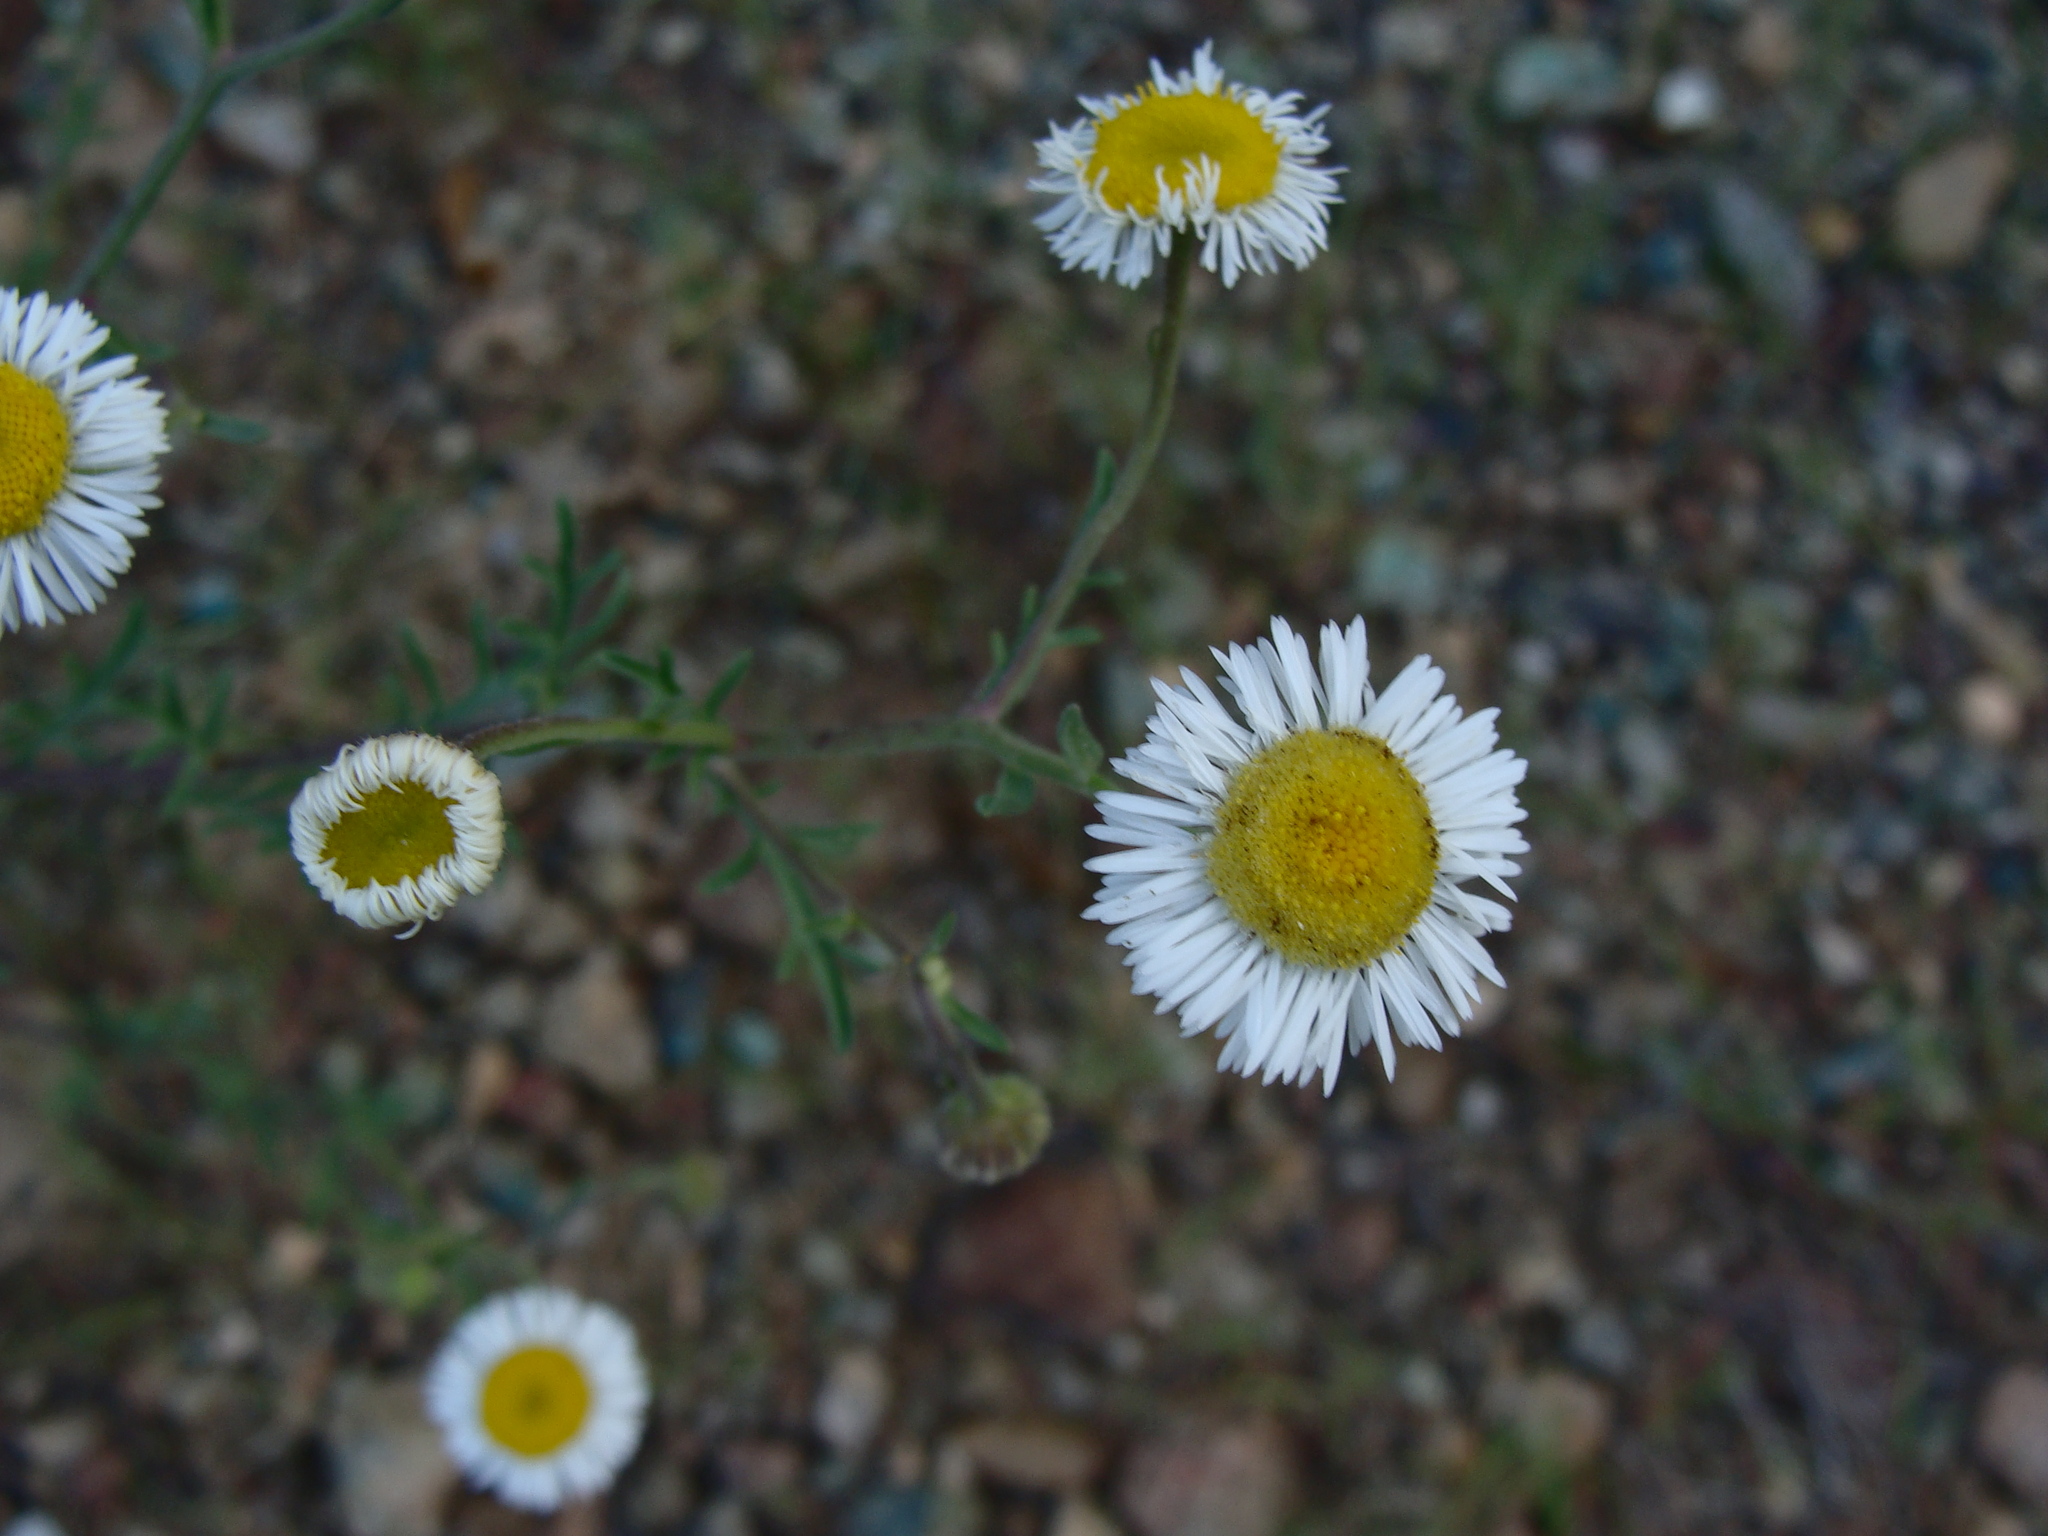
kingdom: Plantae
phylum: Tracheophyta
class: Magnoliopsida
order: Asterales
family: Asteraceae
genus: Erigeron
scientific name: Erigeron neomexicanus
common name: New mexico fleabane
